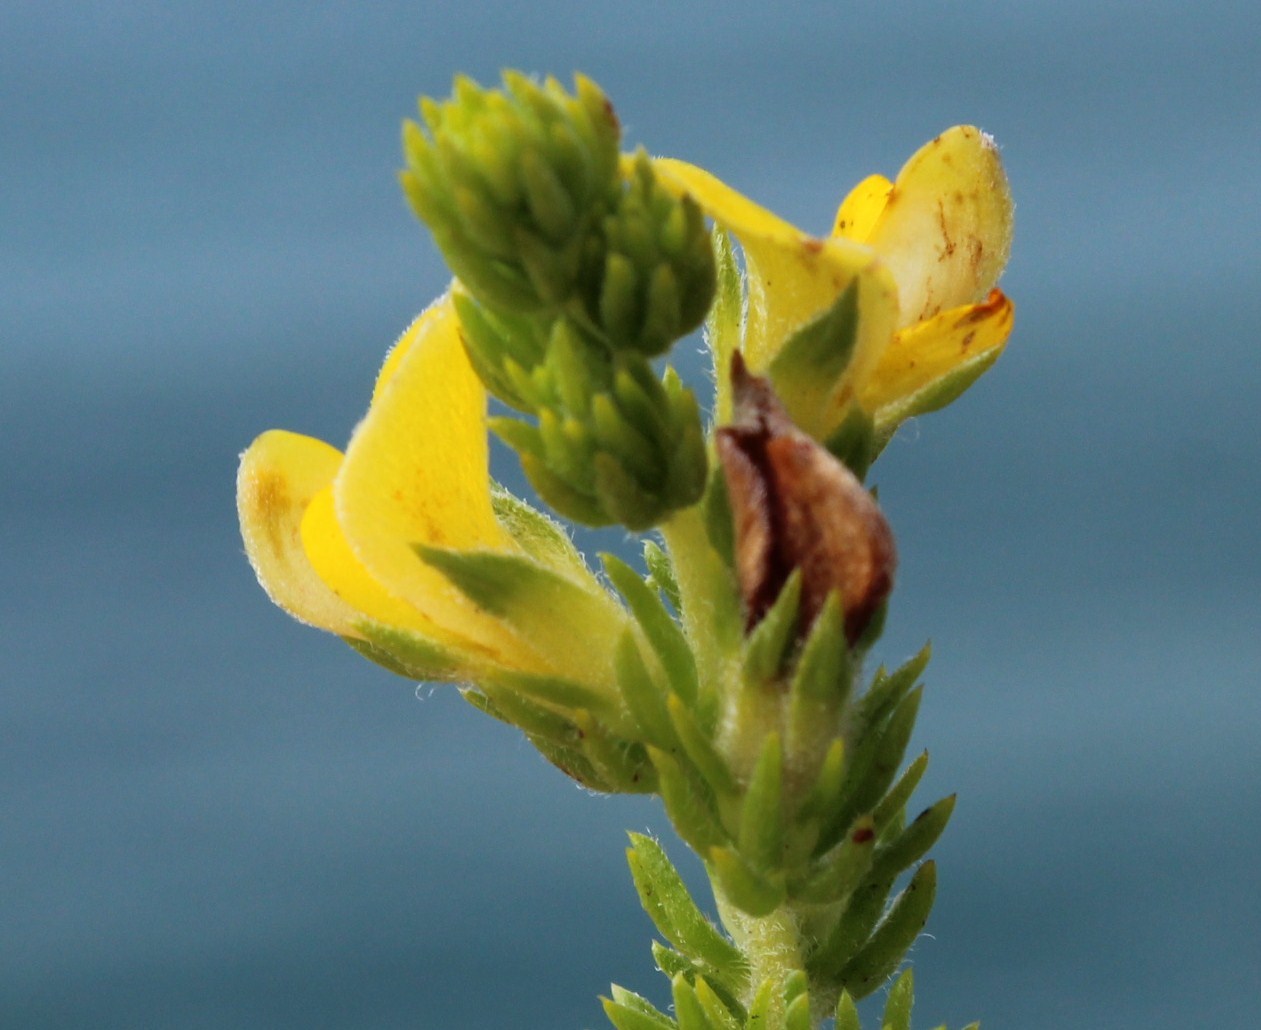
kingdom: Plantae
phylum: Tracheophyta
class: Magnoliopsida
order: Fabales
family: Fabaceae
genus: Aspalathus
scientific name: Aspalathus opaca
